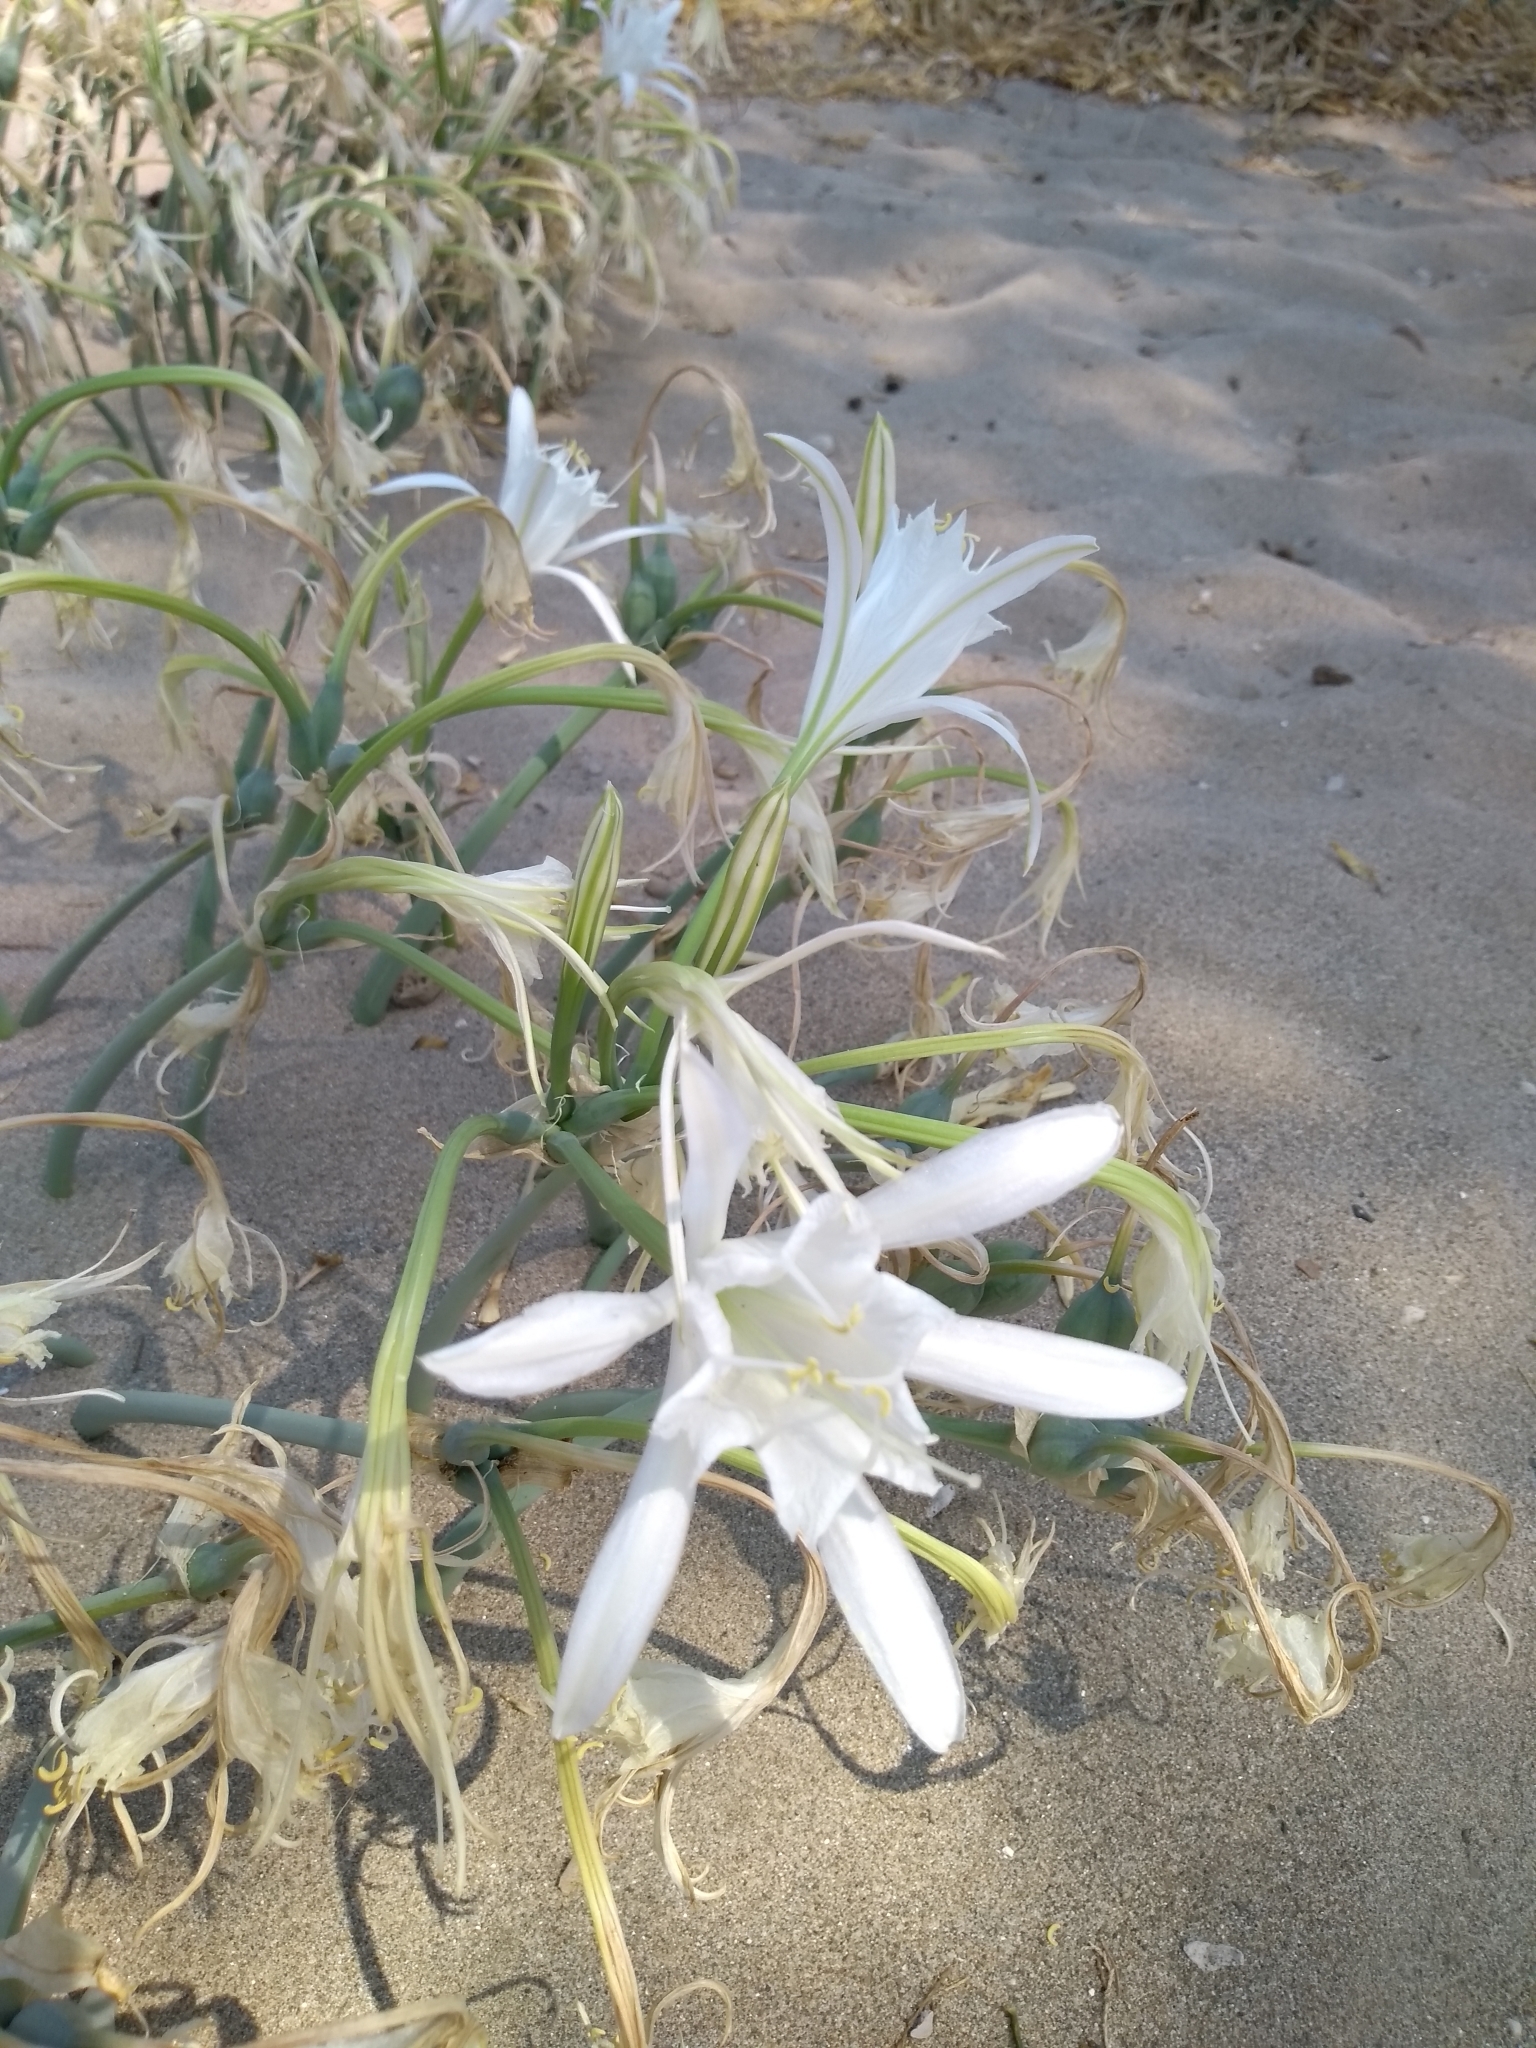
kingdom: Plantae
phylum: Tracheophyta
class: Liliopsida
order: Asparagales
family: Amaryllidaceae
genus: Pancratium
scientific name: Pancratium maritimum
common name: Sea-daffodil
